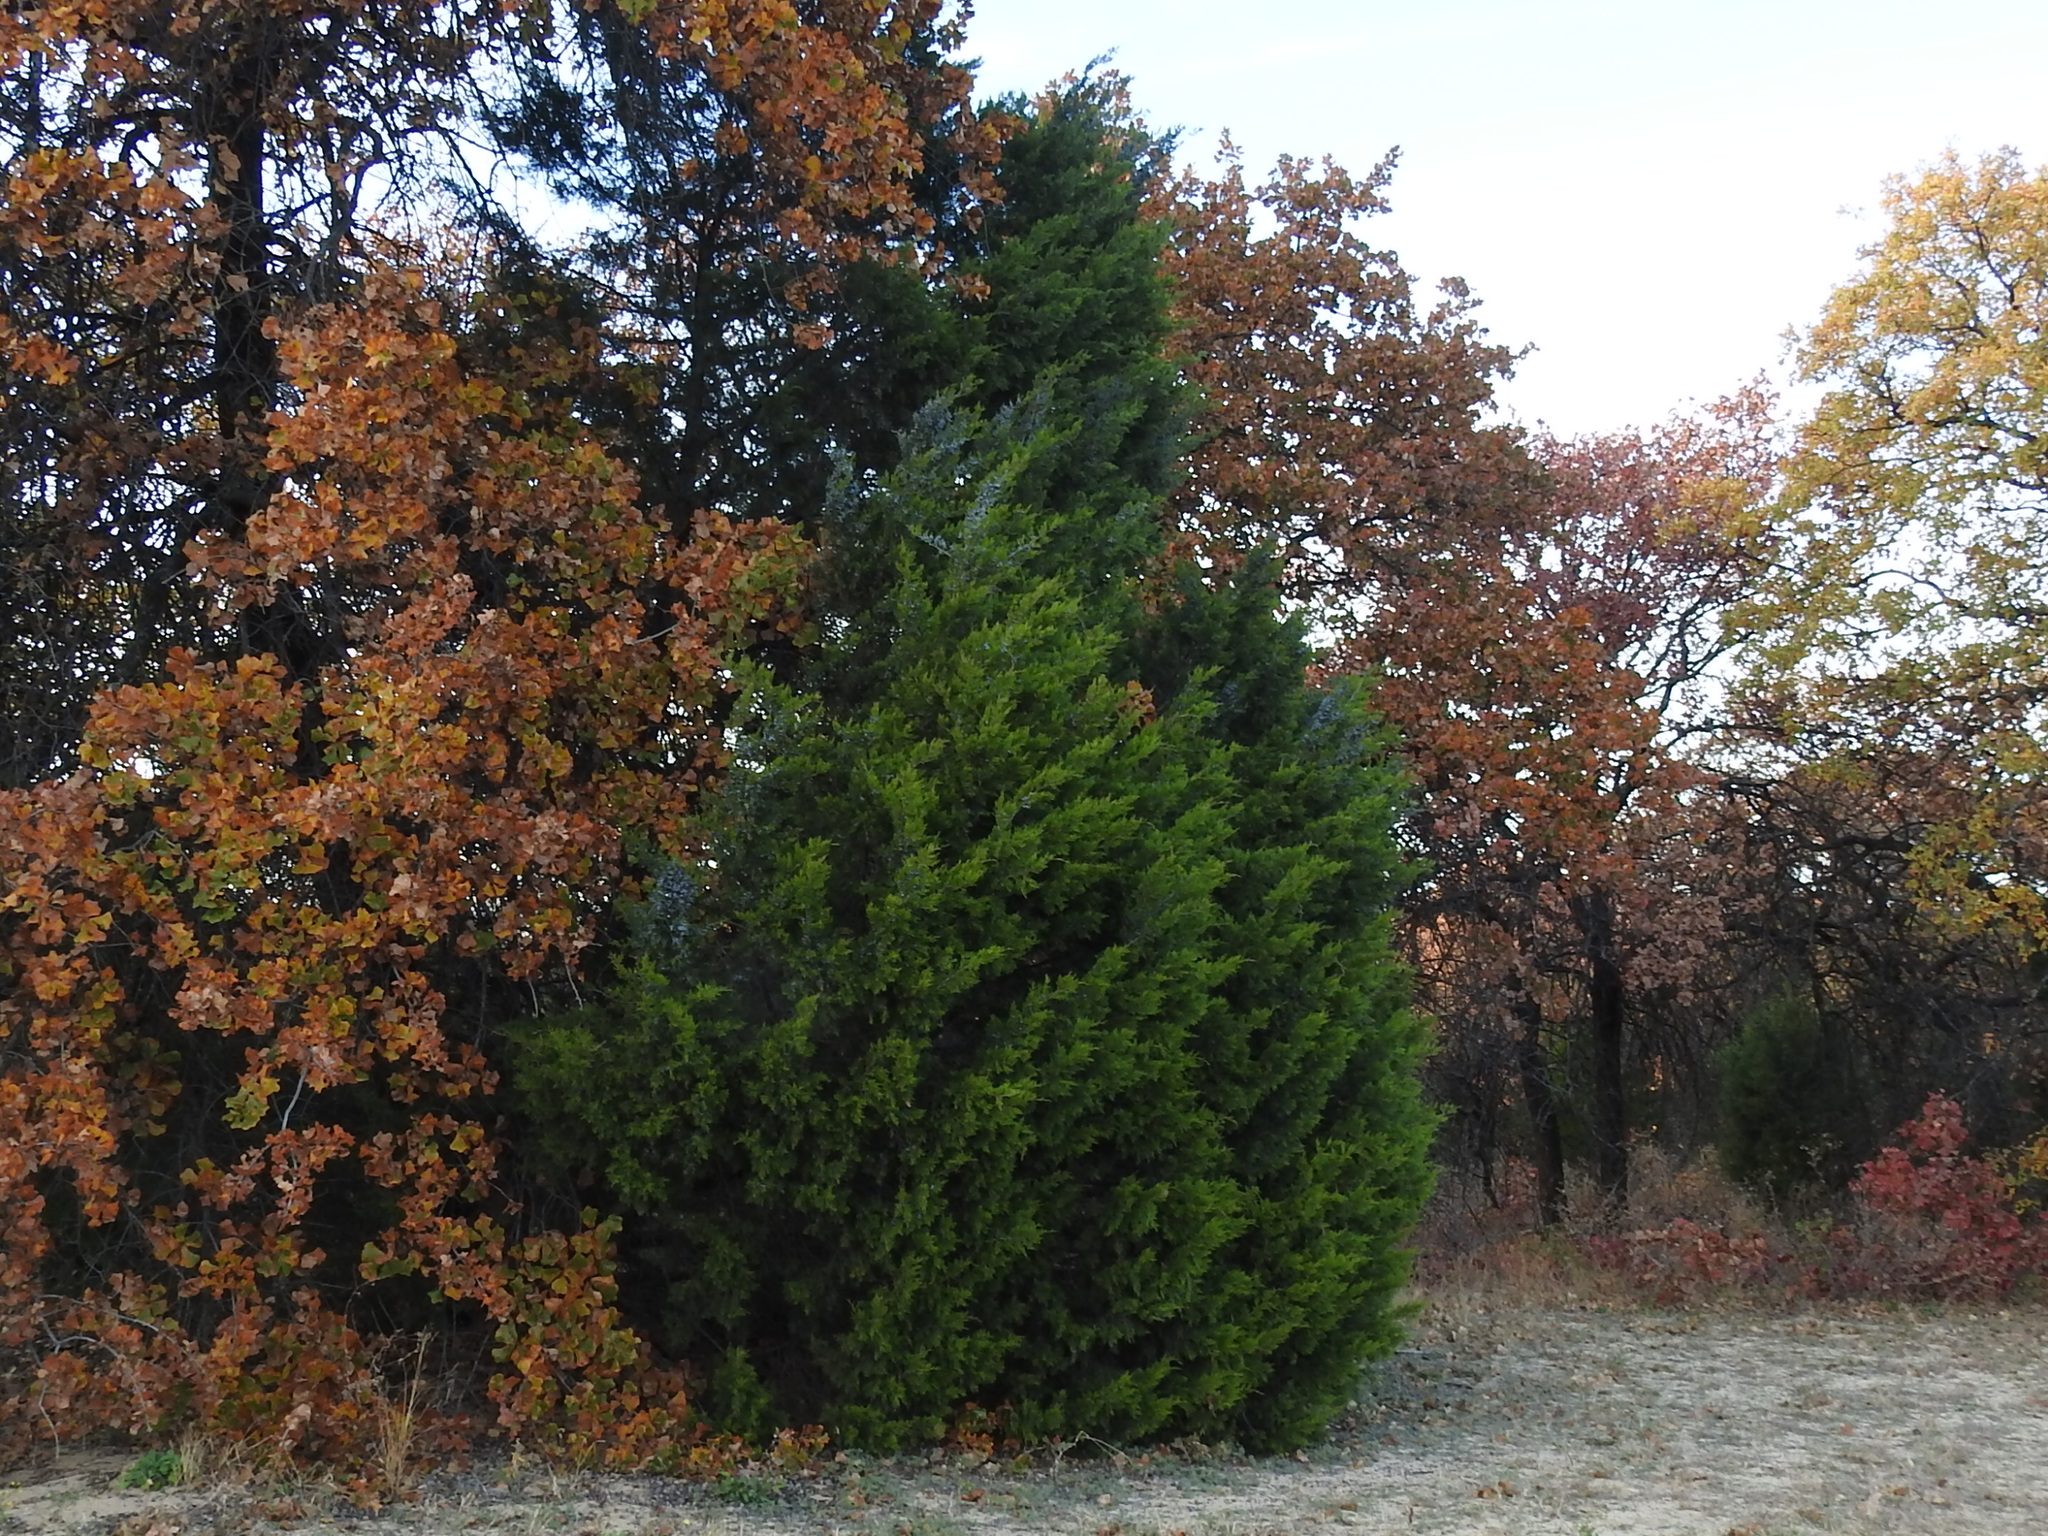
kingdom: Plantae
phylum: Tracheophyta
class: Pinopsida
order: Pinales
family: Cupressaceae
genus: Juniperus
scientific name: Juniperus virginiana
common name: Red juniper
